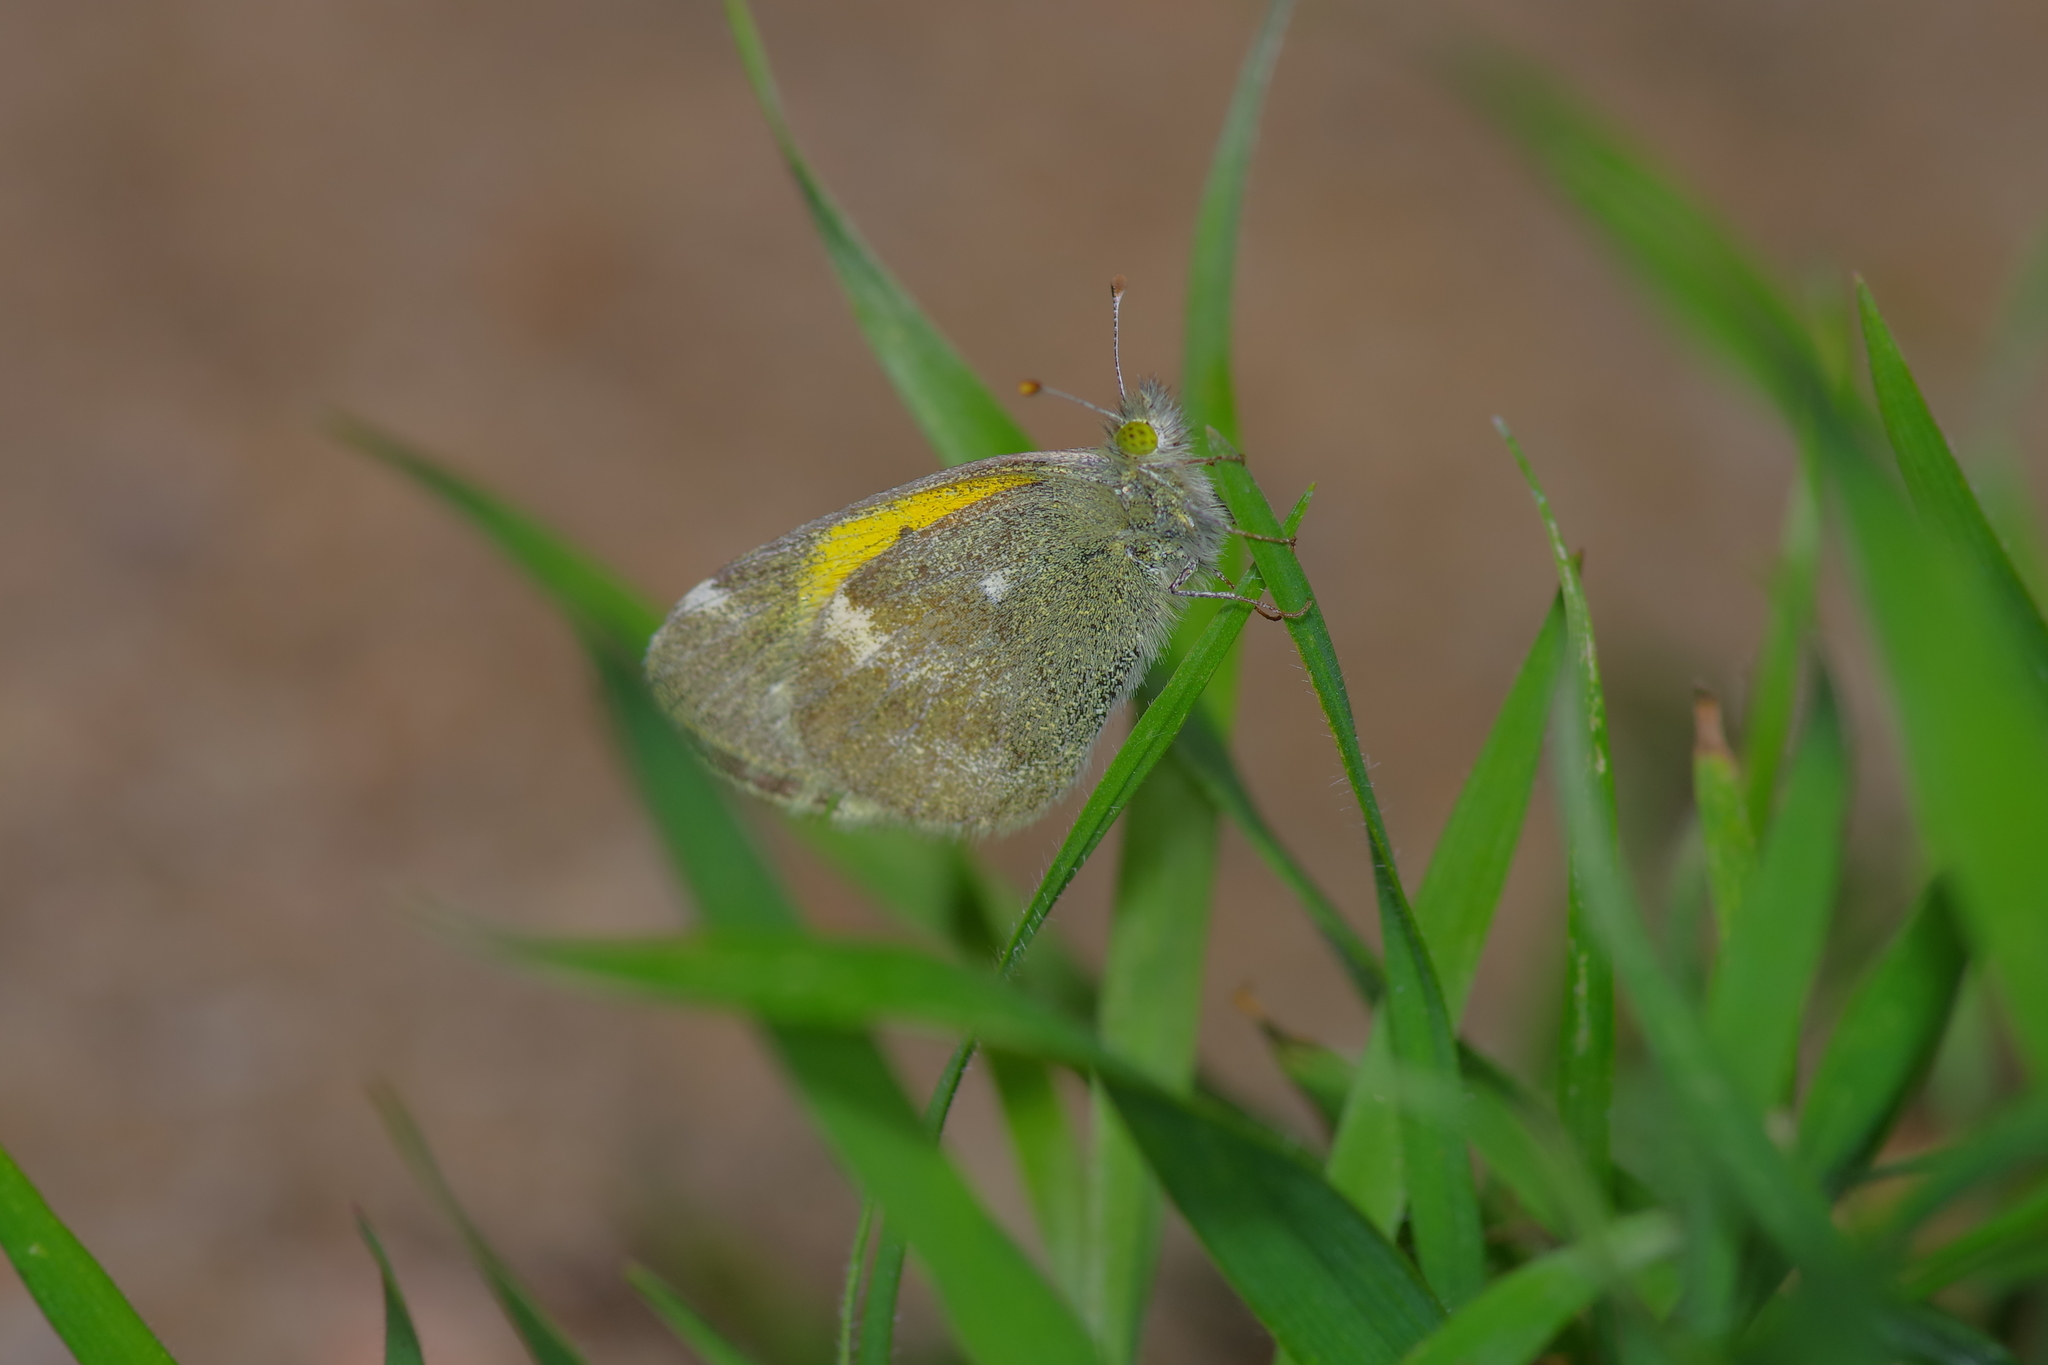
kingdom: Animalia
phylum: Arthropoda
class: Insecta
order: Lepidoptera
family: Pieridae
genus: Nathalis
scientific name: Nathalis iole
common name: Dainty sulphur
